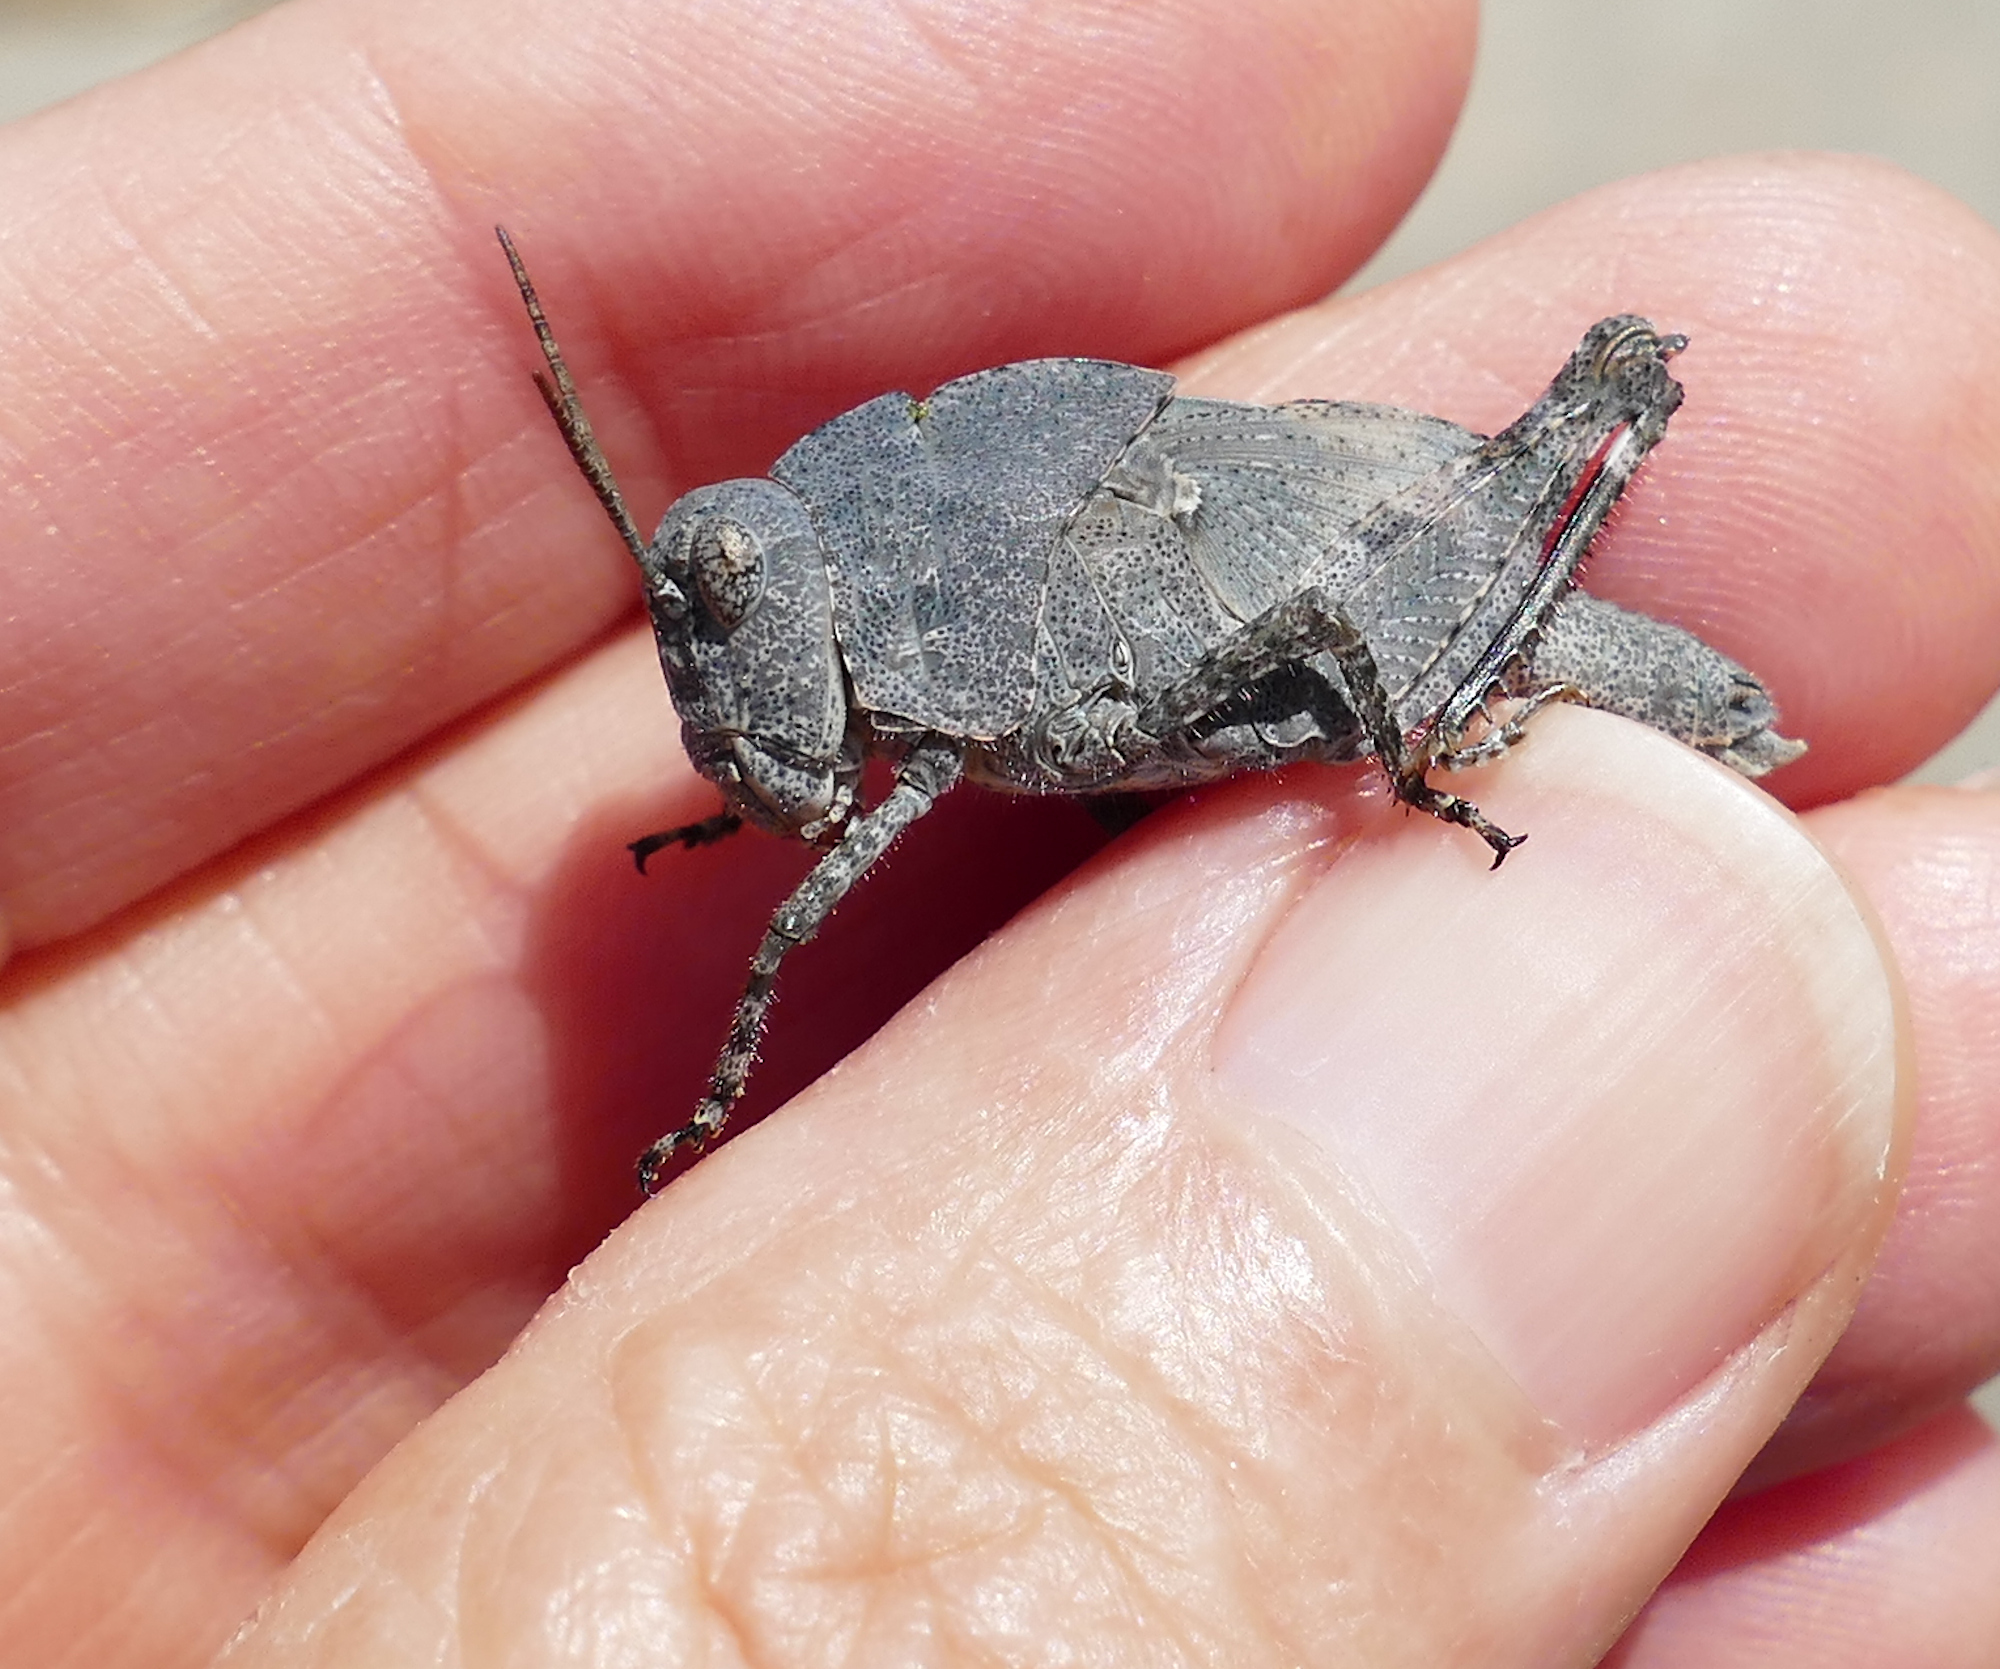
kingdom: Animalia
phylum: Arthropoda
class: Insecta
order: Orthoptera
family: Acrididae
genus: Dissosteira
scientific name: Dissosteira carolina
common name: Carolina grasshopper
